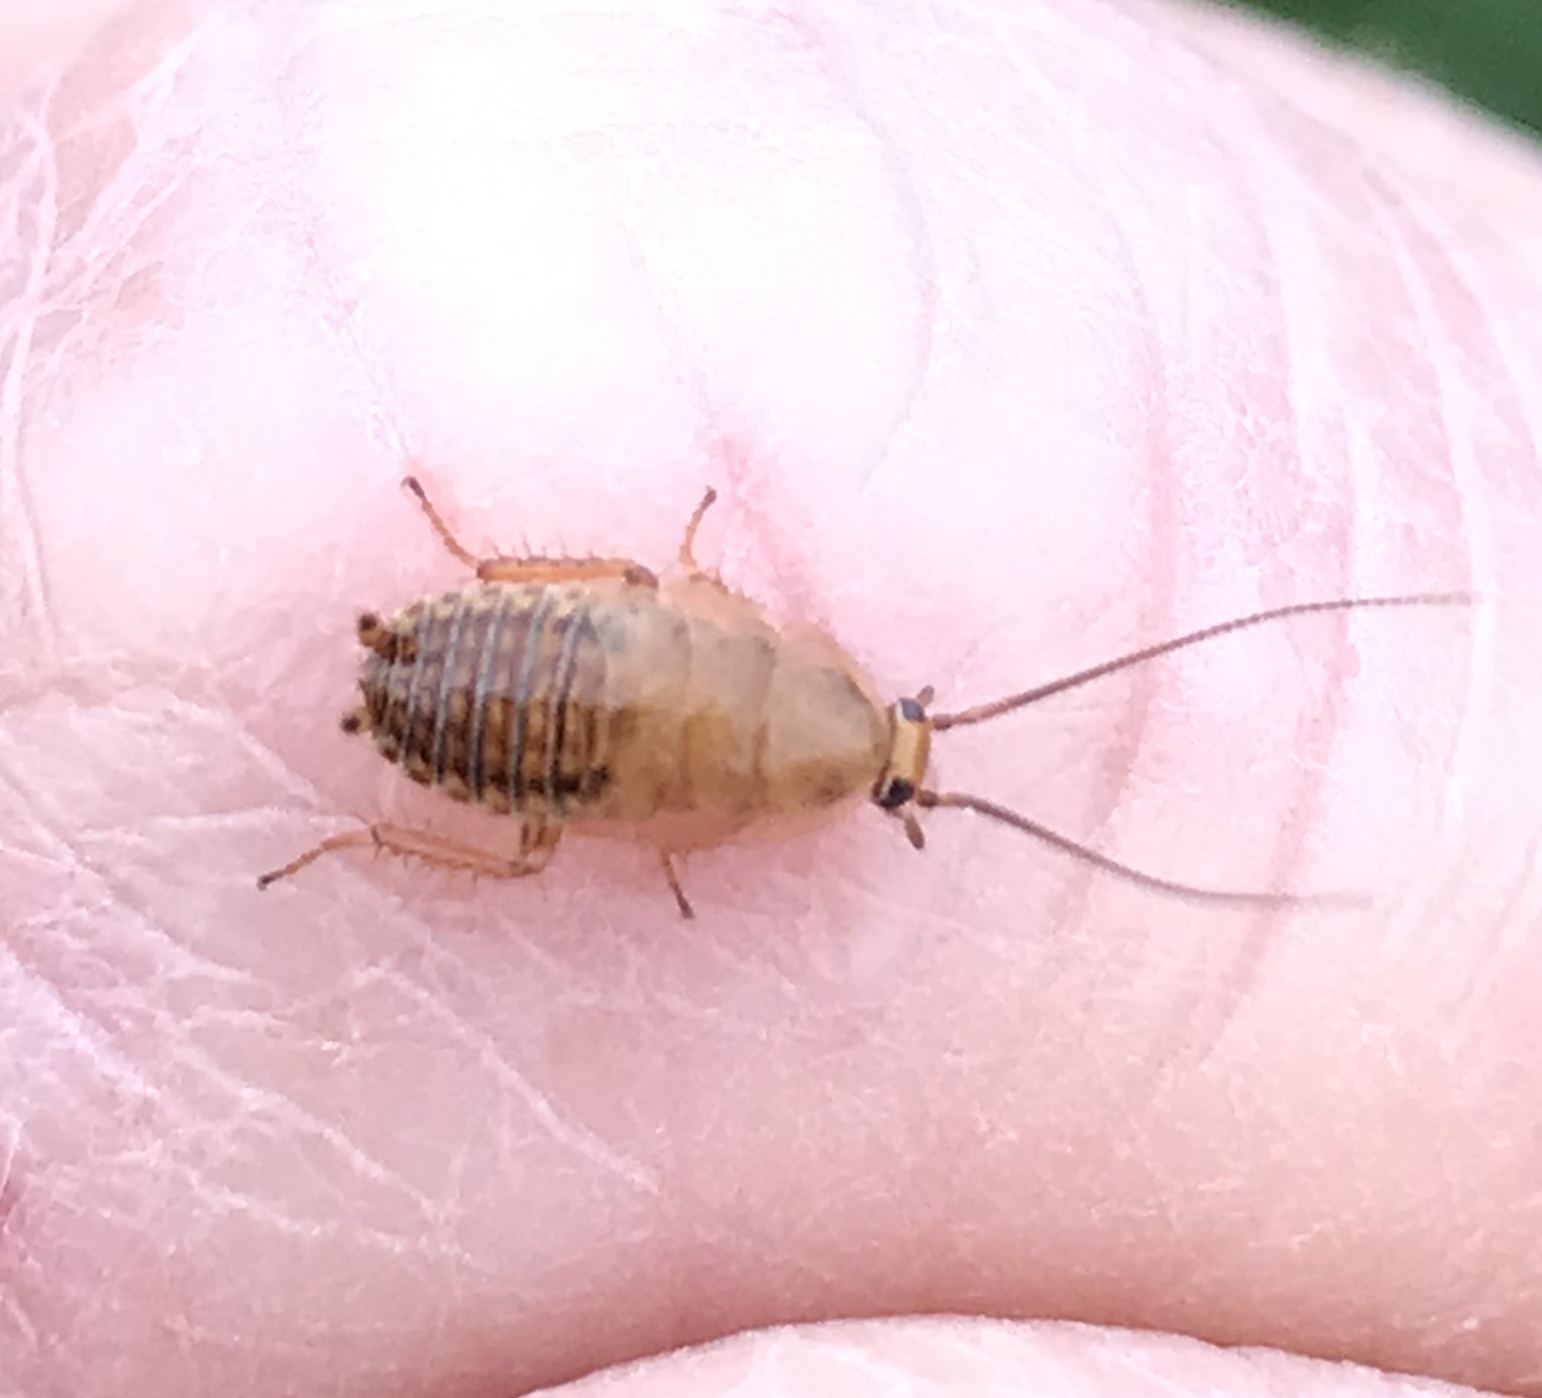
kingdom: Animalia
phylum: Arthropoda
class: Insecta
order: Blattodea
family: Ectobiidae
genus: Ectobius
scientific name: Ectobius
